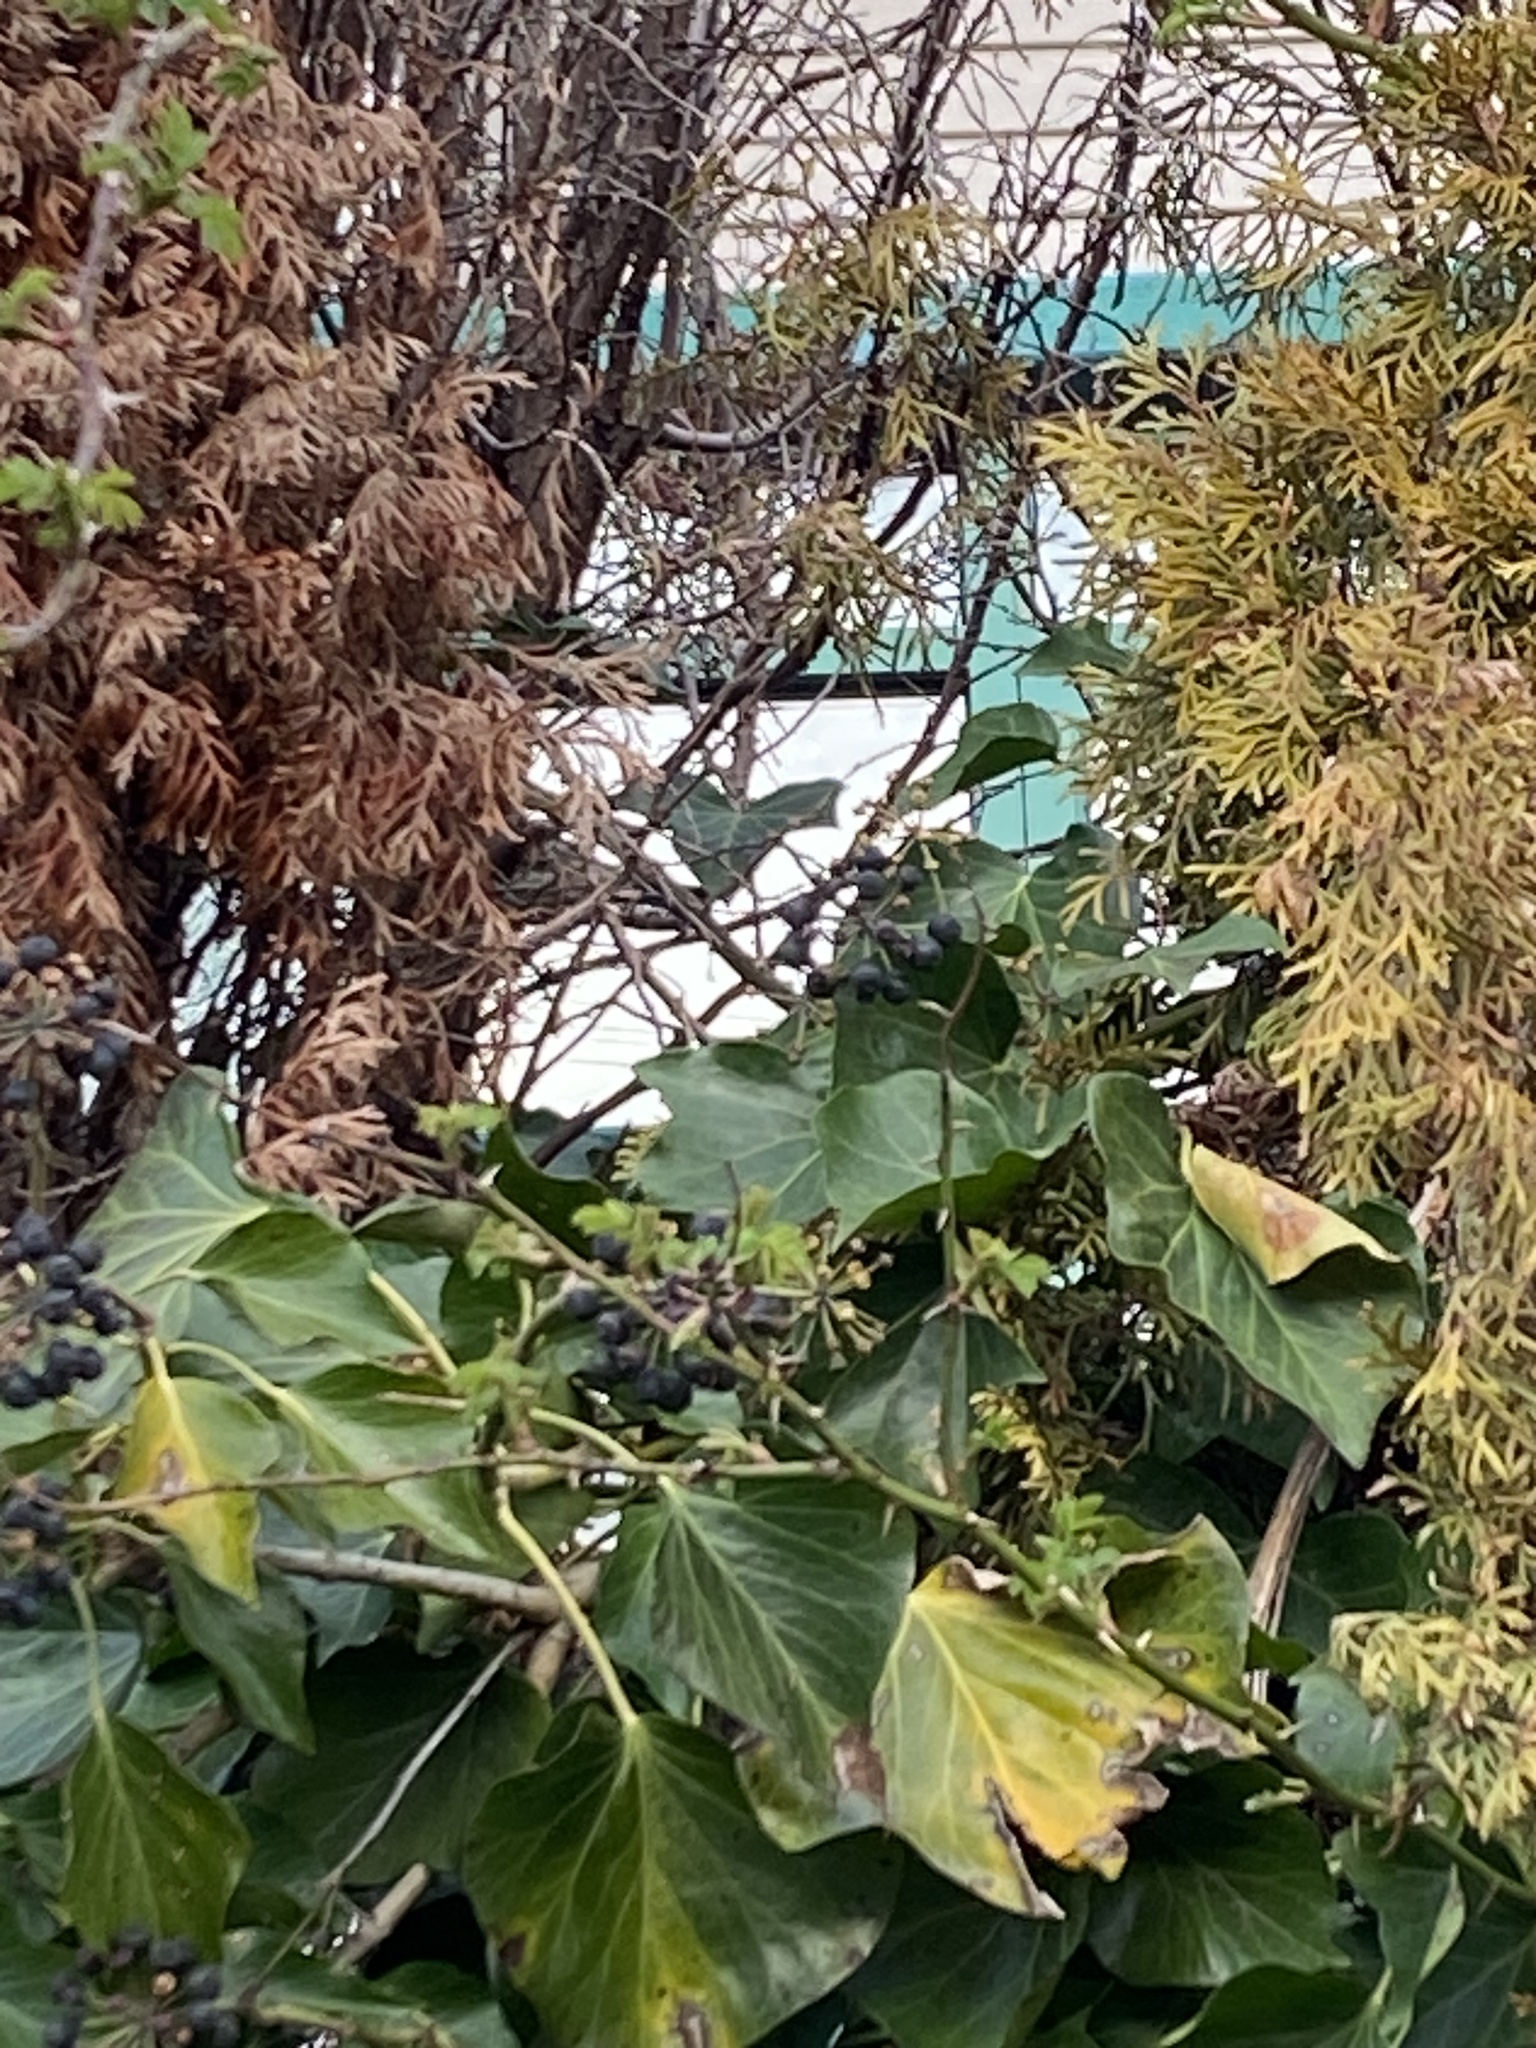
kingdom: Animalia
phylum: Chordata
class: Aves
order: Passeriformes
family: Passeridae
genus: Passer
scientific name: Passer domesticus
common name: House sparrow
